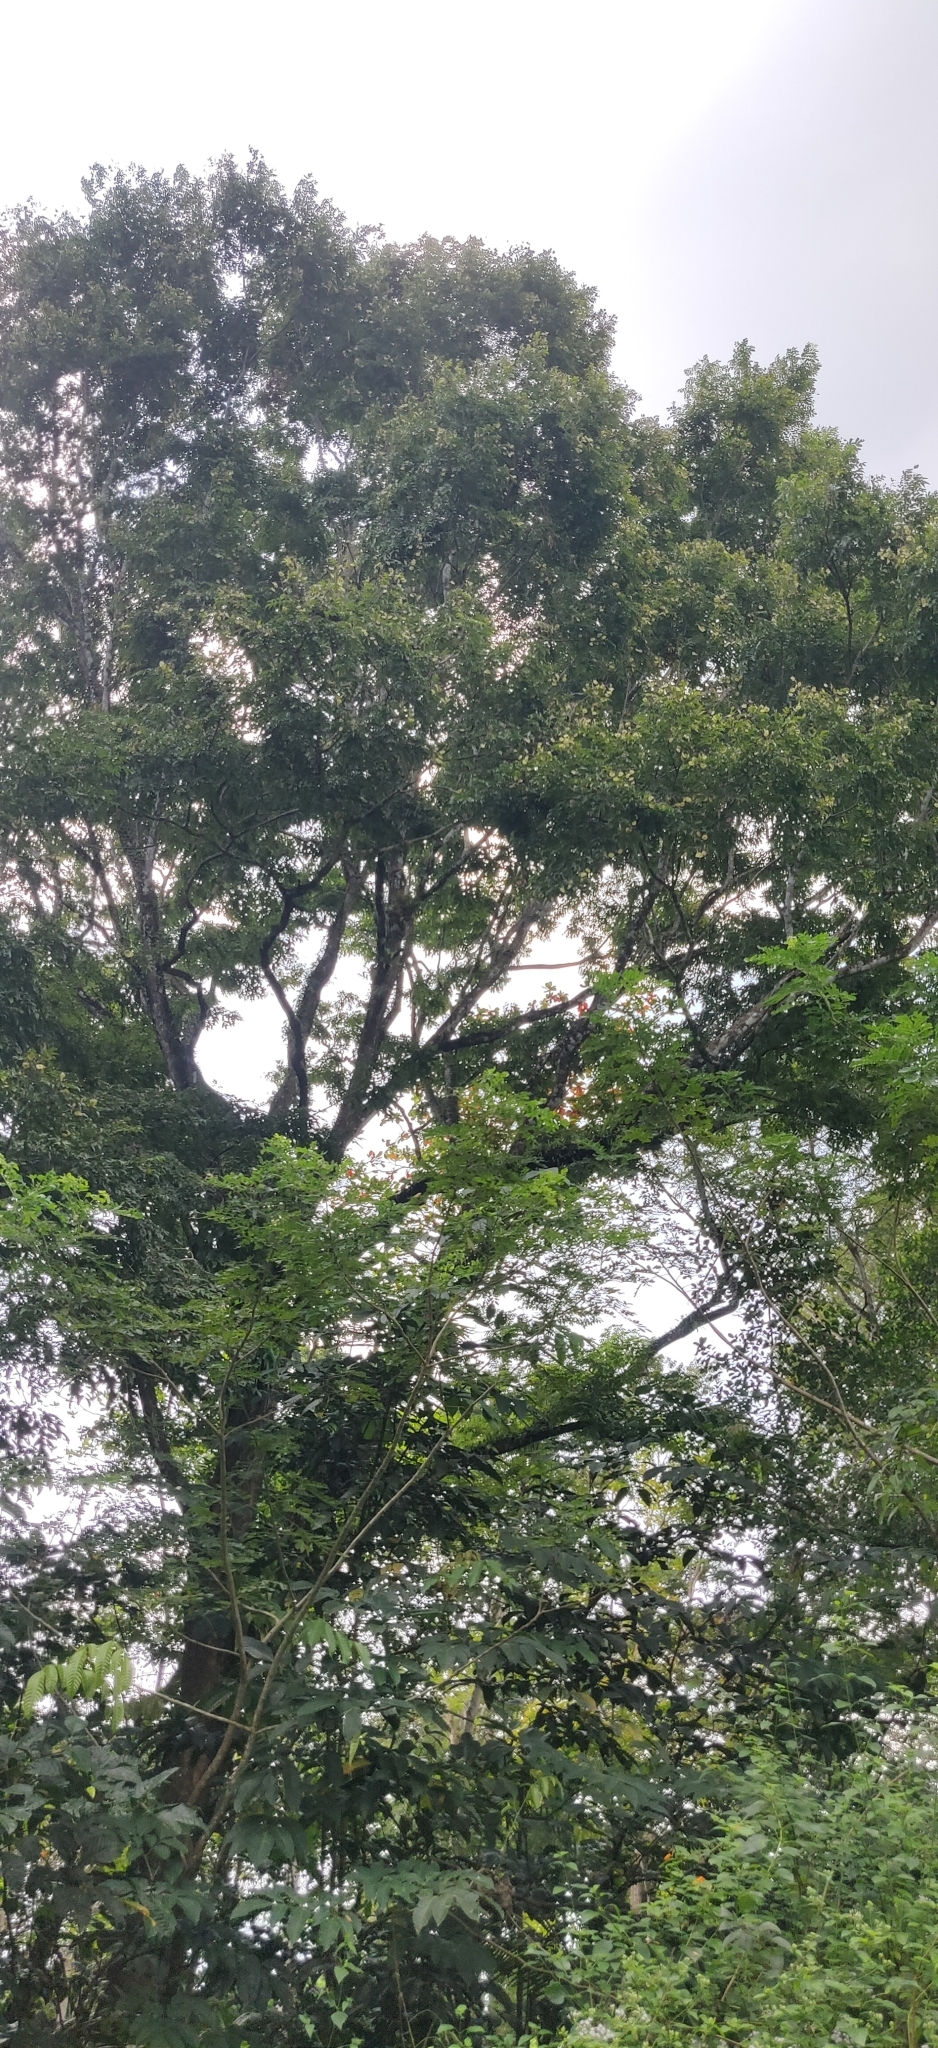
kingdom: Plantae
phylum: Tracheophyta
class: Magnoliopsida
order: Fabales
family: Fabaceae
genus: Pterocarpus
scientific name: Pterocarpus dalbergioides
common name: Andaman redwood
